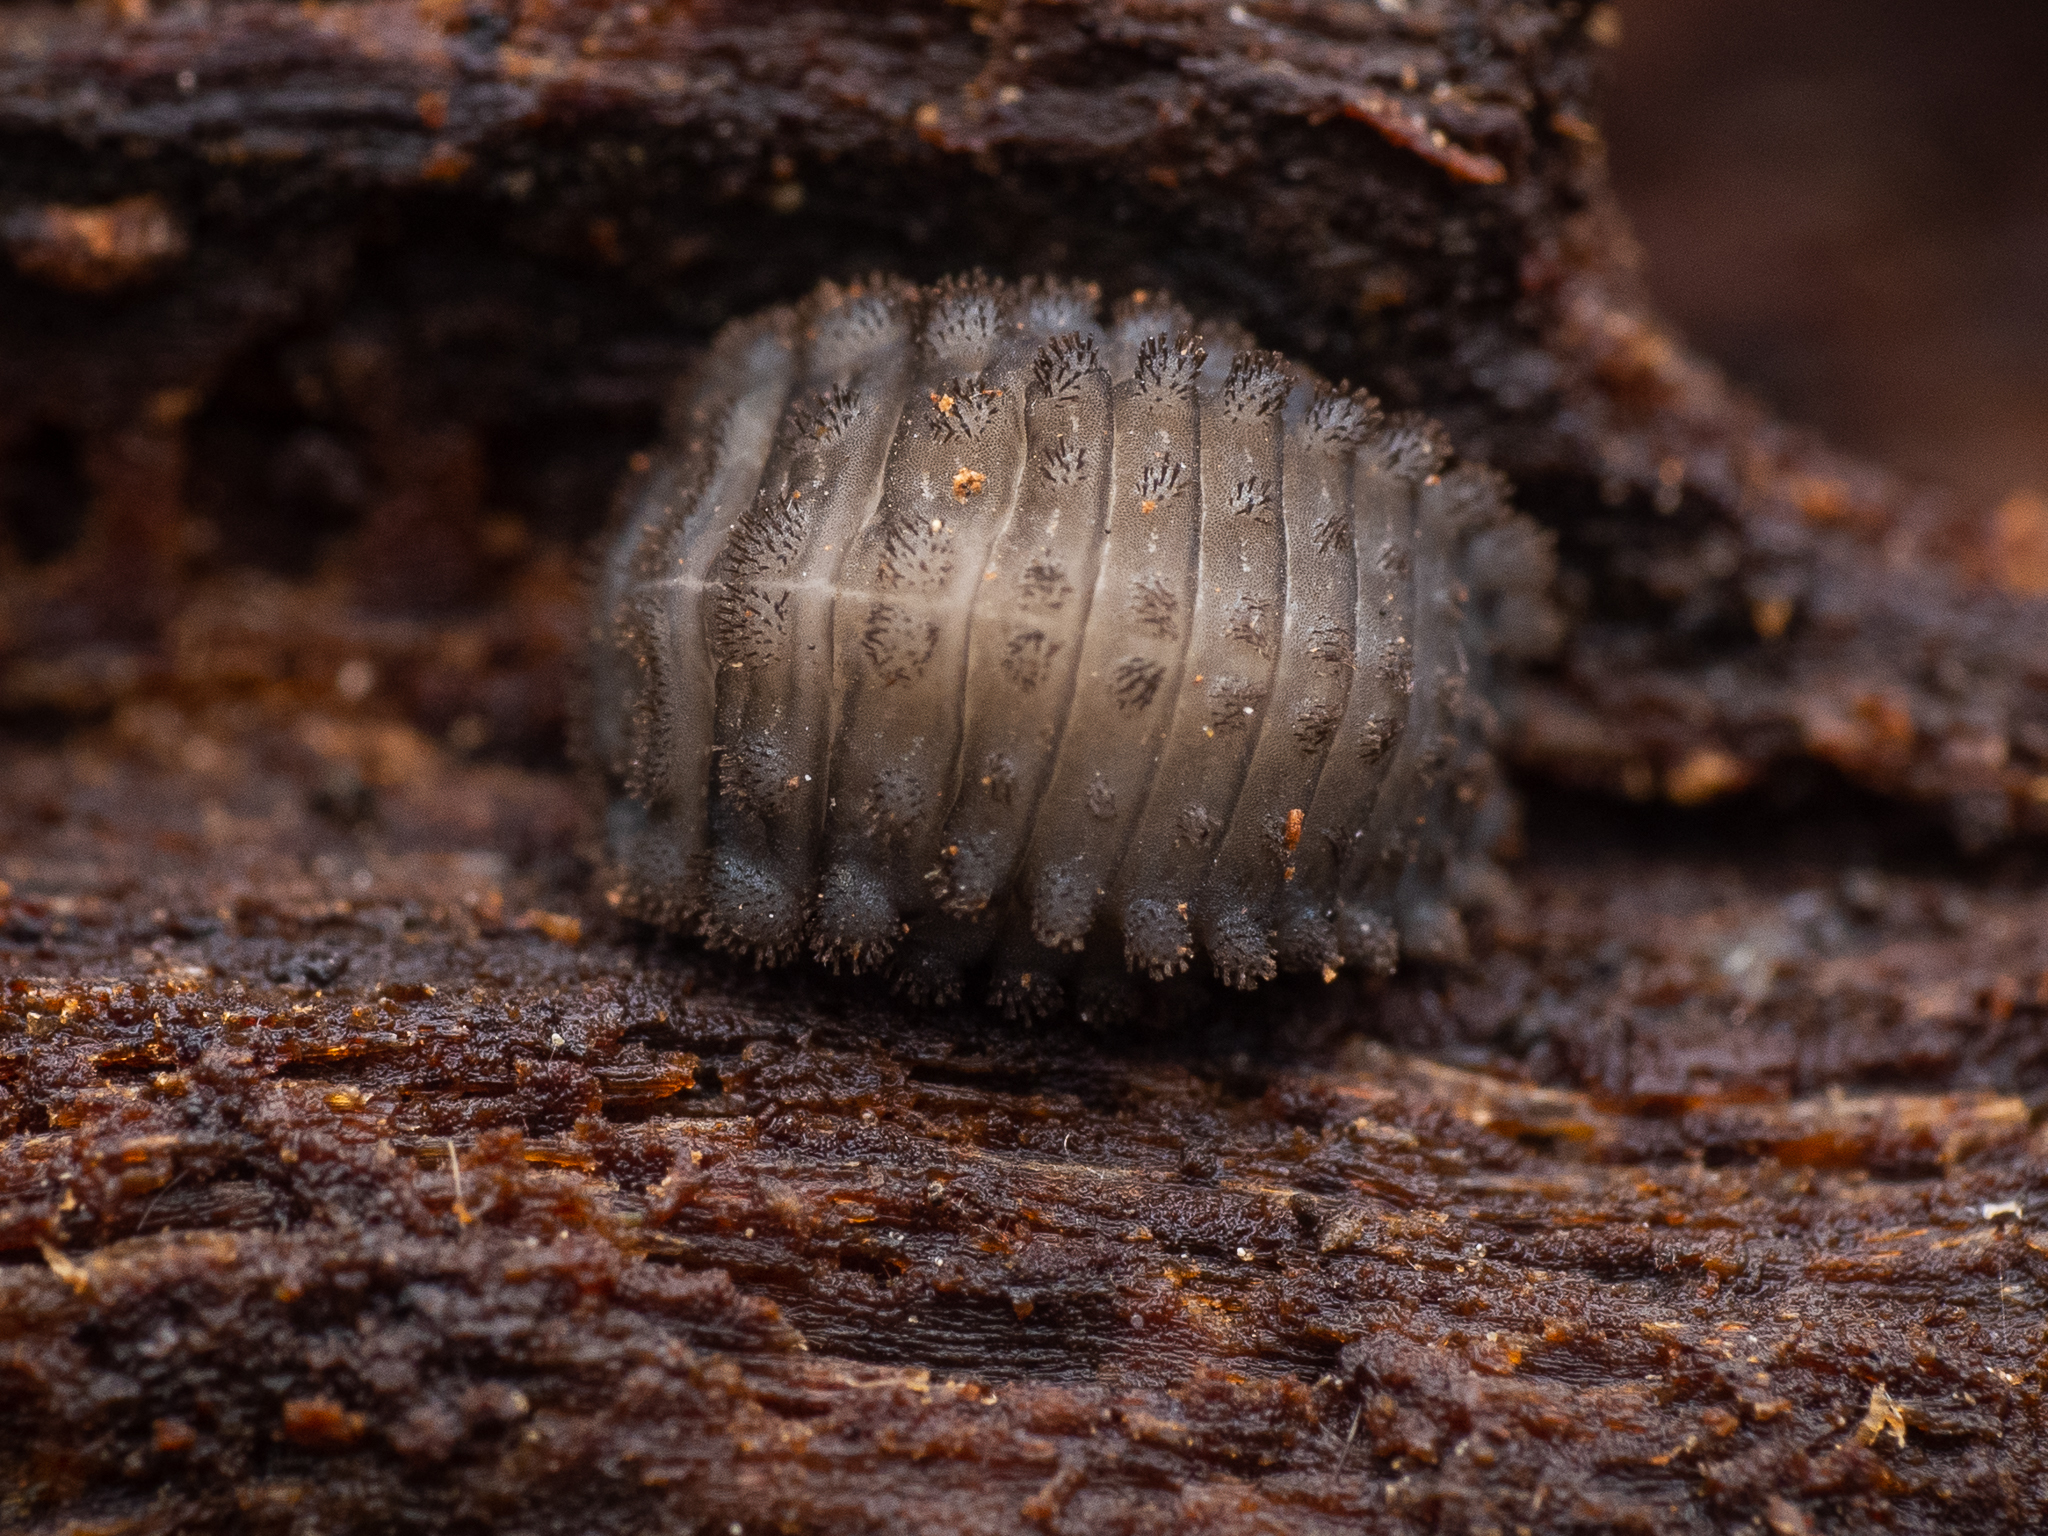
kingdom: Animalia
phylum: Arthropoda
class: Insecta
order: Coleoptera
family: Endomychidae
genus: Mycetina
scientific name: Mycetina cruciata
